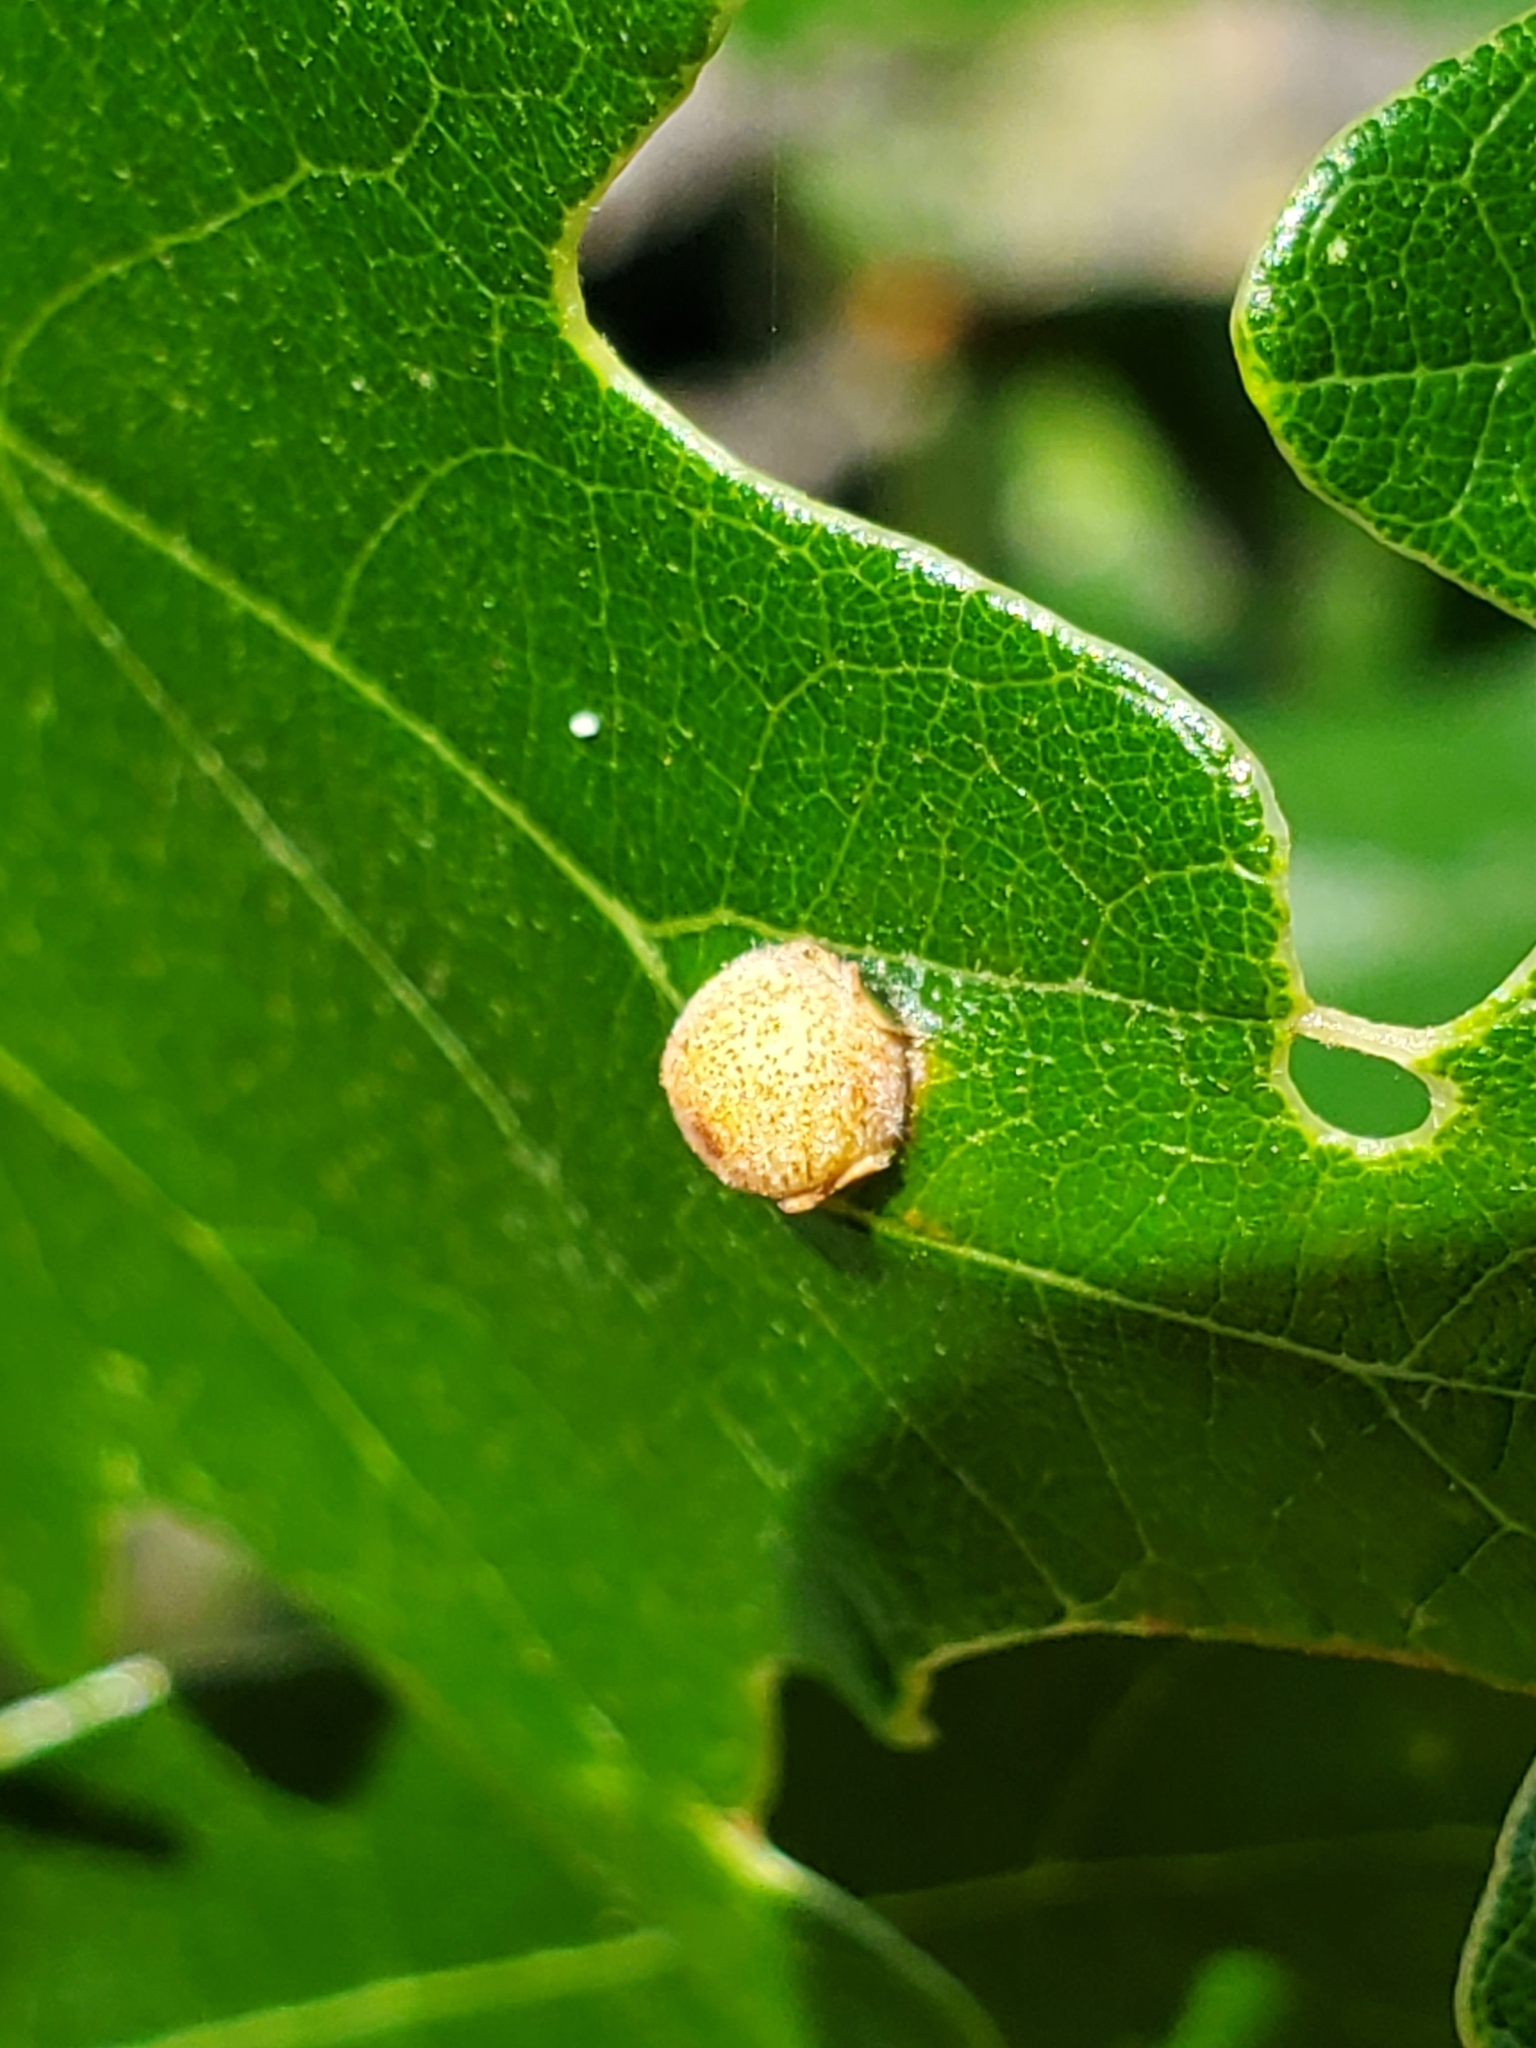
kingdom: Animalia
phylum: Arthropoda
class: Insecta
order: Hymenoptera
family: Cynipidae
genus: Philonix
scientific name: Philonix fulvicollis
